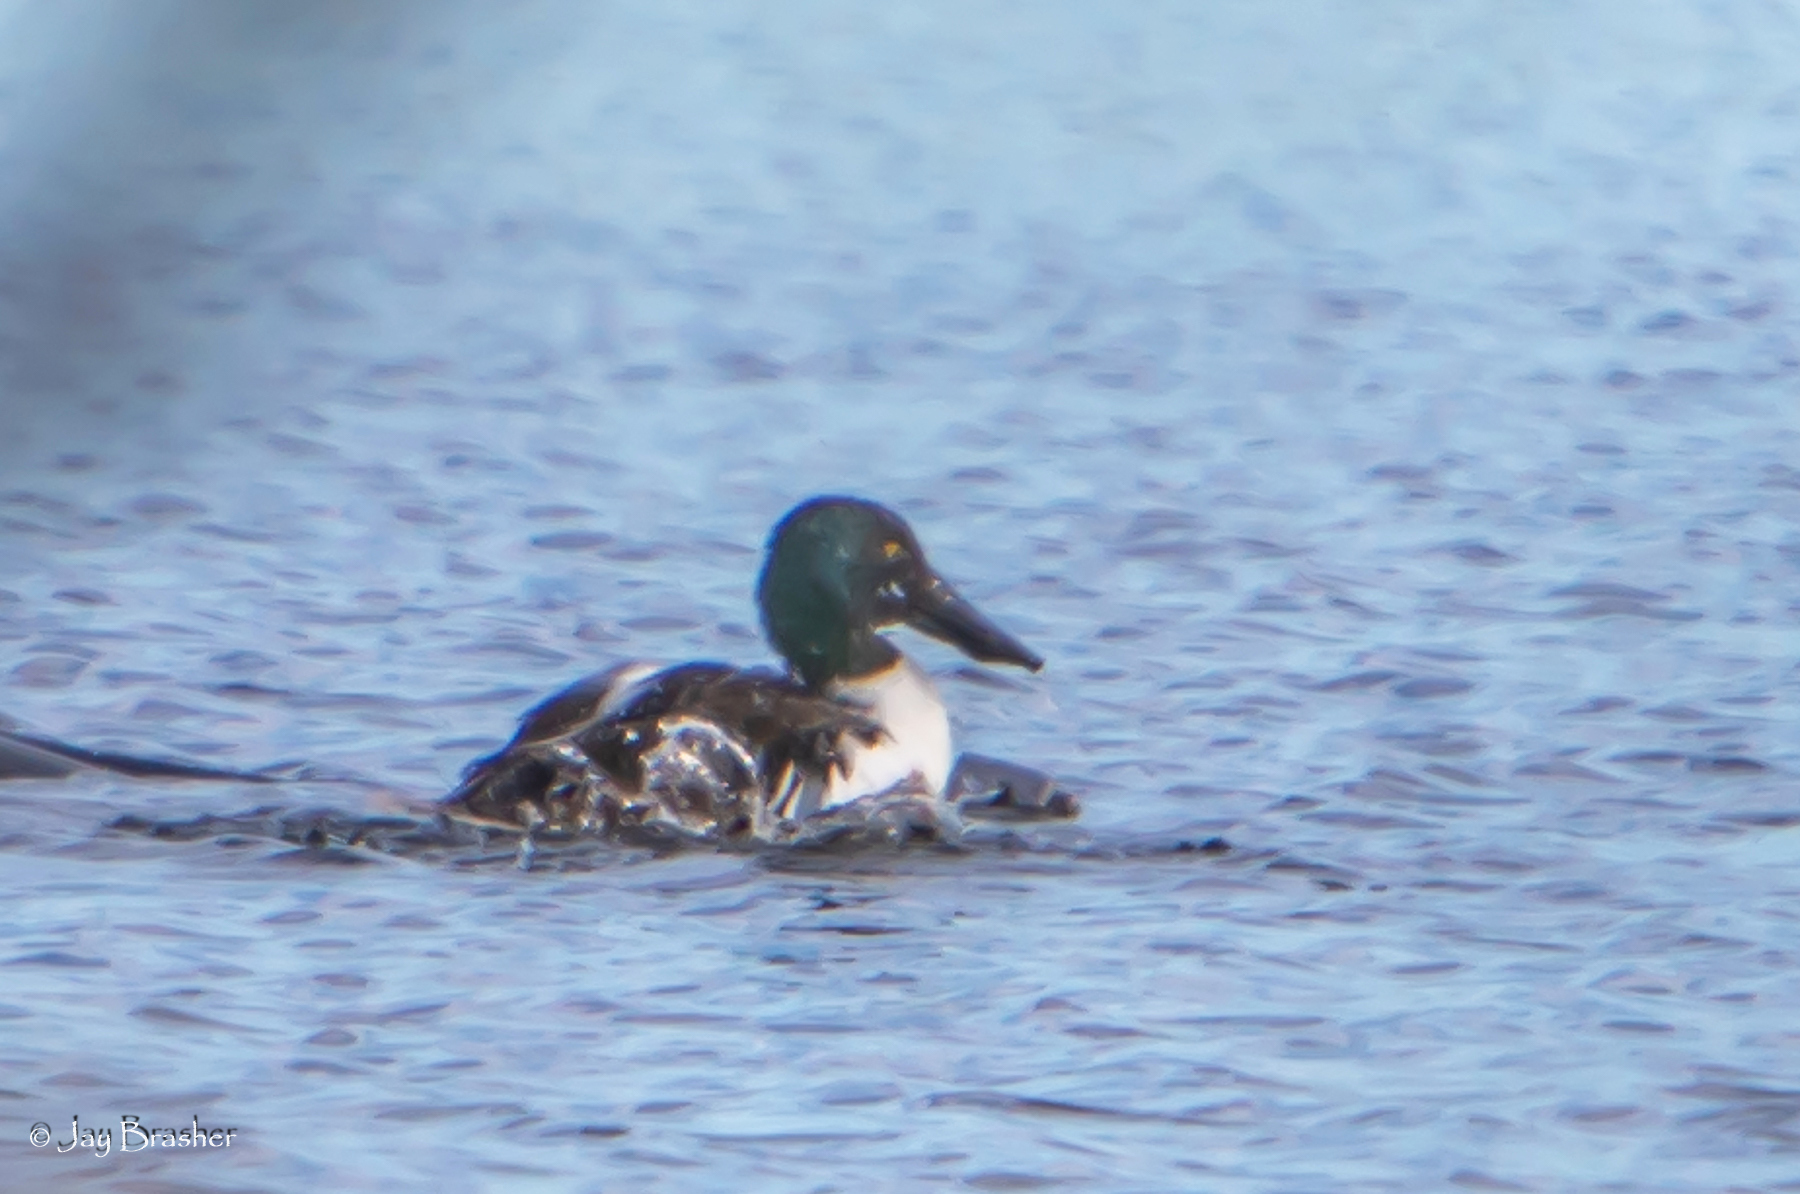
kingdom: Animalia
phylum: Chordata
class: Aves
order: Anseriformes
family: Anatidae
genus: Spatula
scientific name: Spatula clypeata
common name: Northern shoveler
